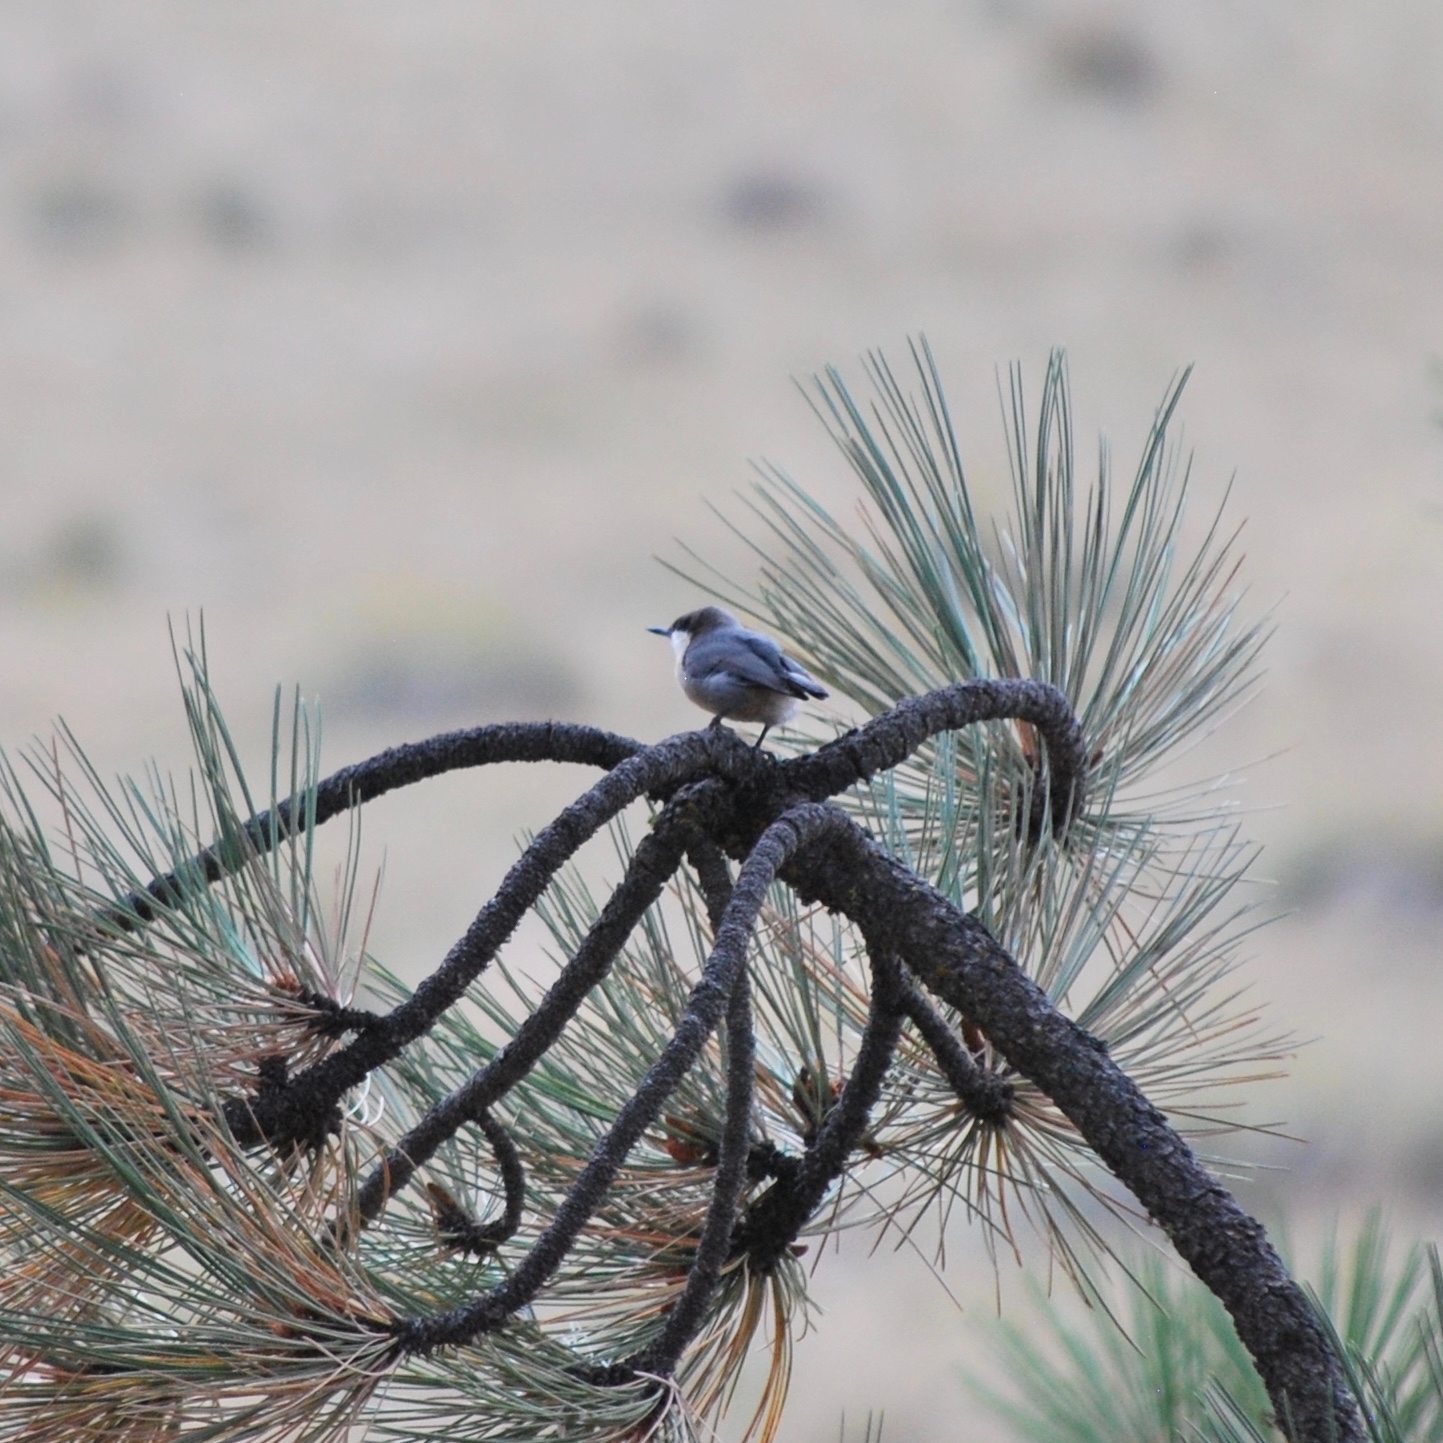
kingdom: Animalia
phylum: Chordata
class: Aves
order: Passeriformes
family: Sittidae
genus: Sitta
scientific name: Sitta pygmaea
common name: Pygmy nuthatch
